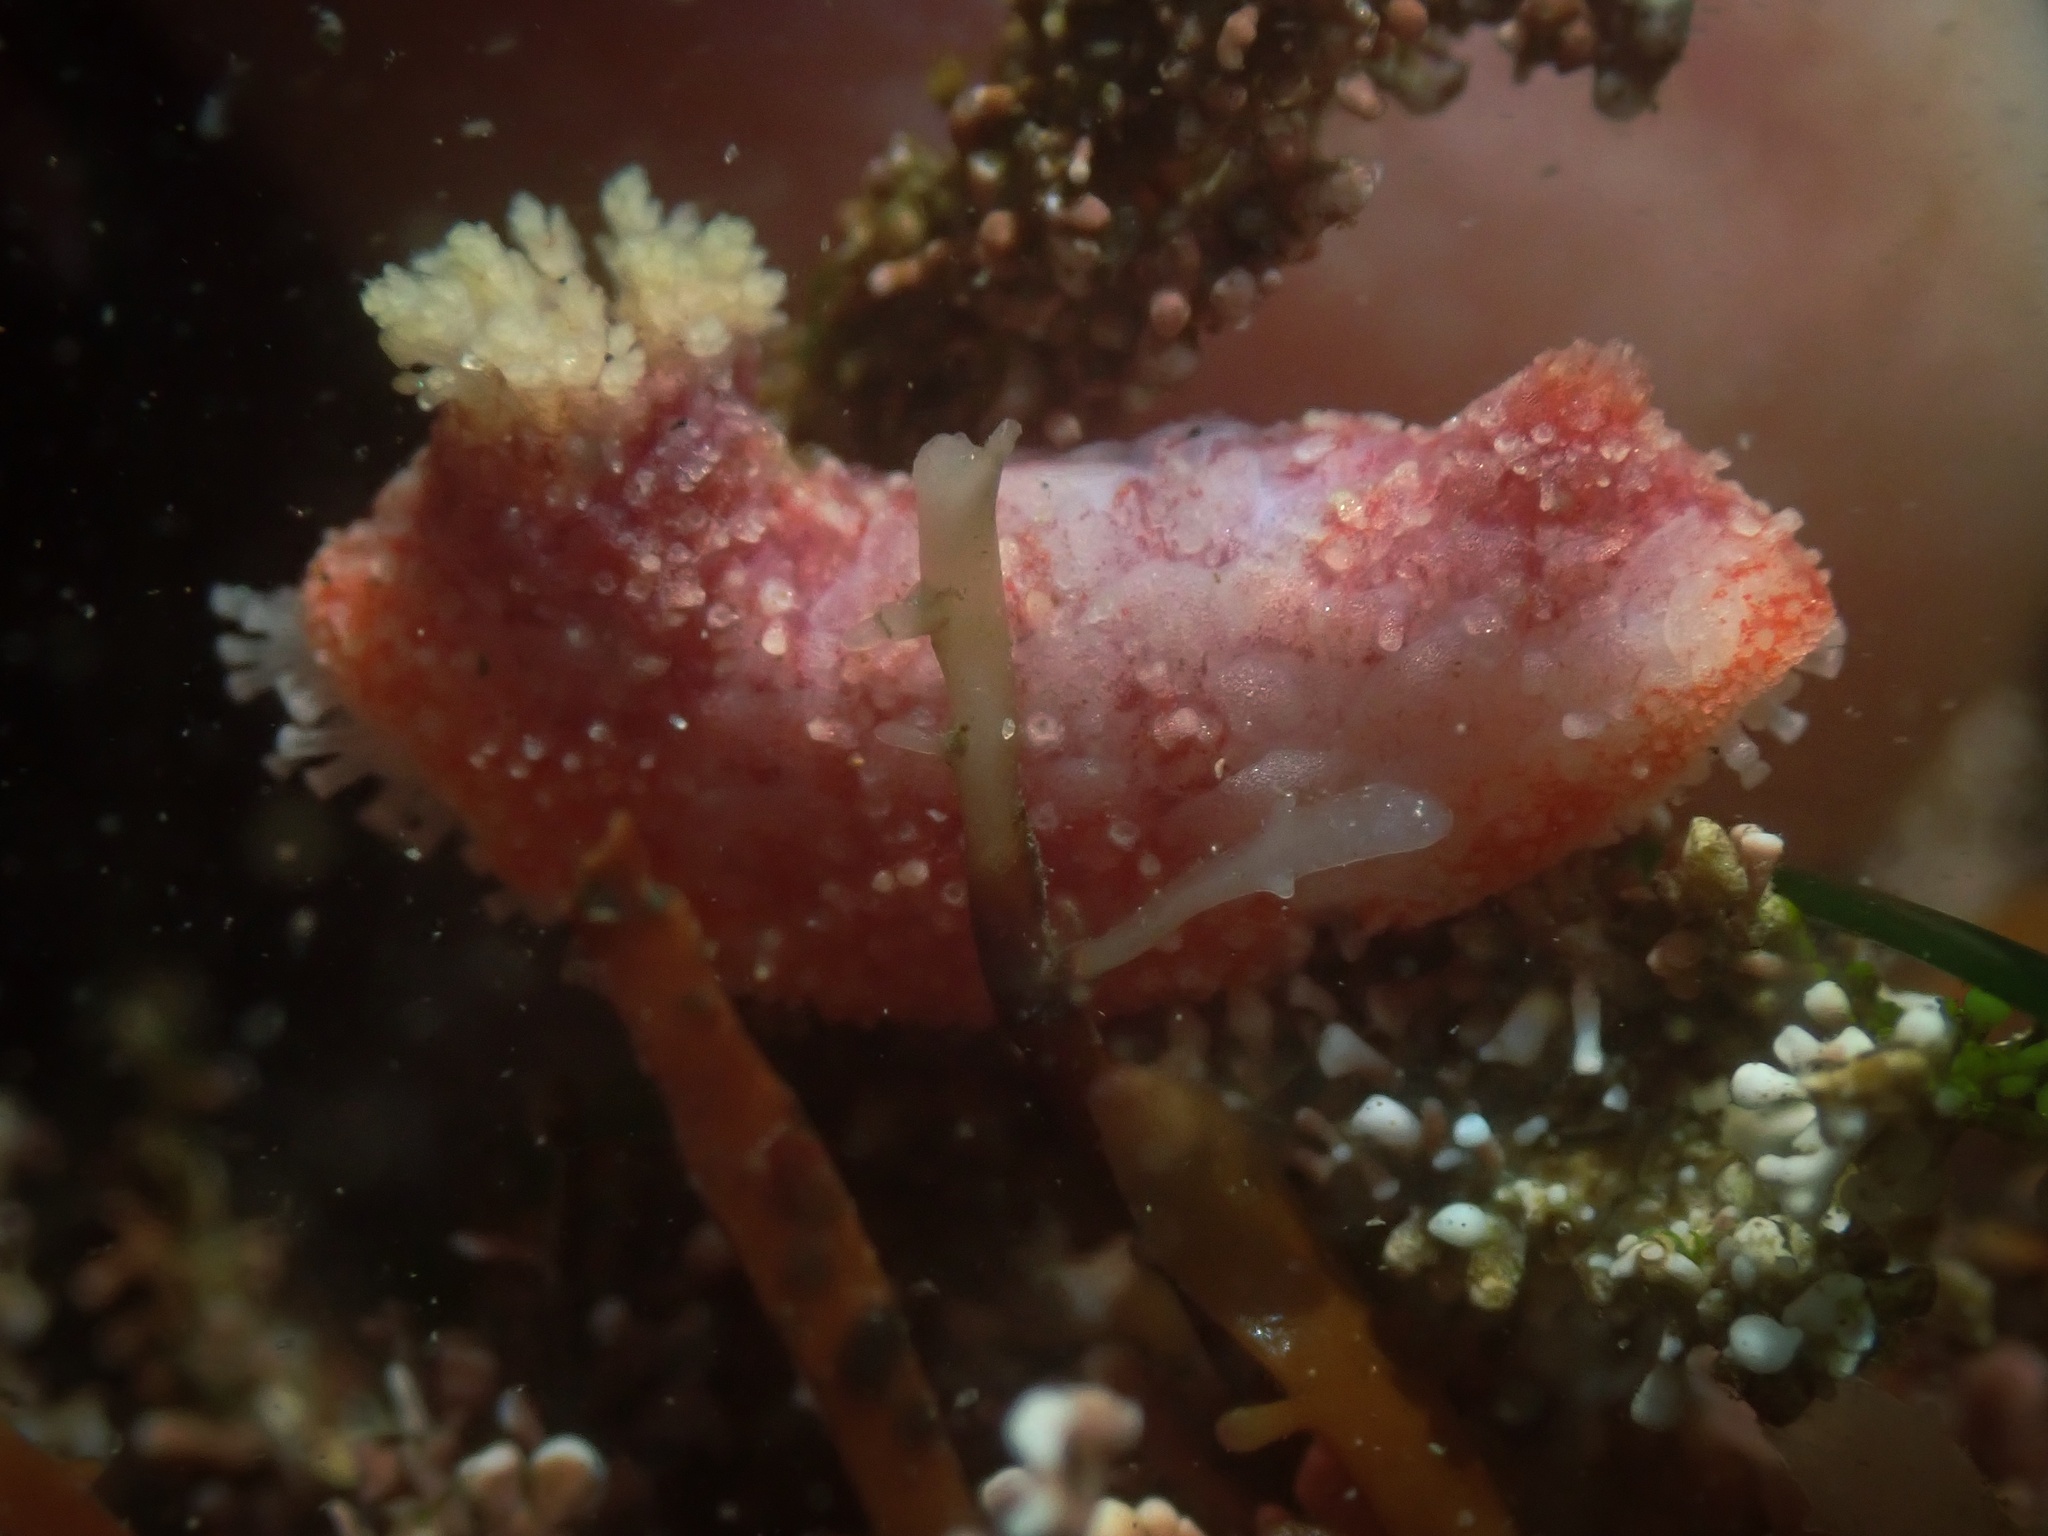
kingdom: Animalia
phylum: Echinodermata
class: Holothuroidea
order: Dendrochirotida
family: Psolidae
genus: Lissothuria
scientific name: Lissothuria nutriens
